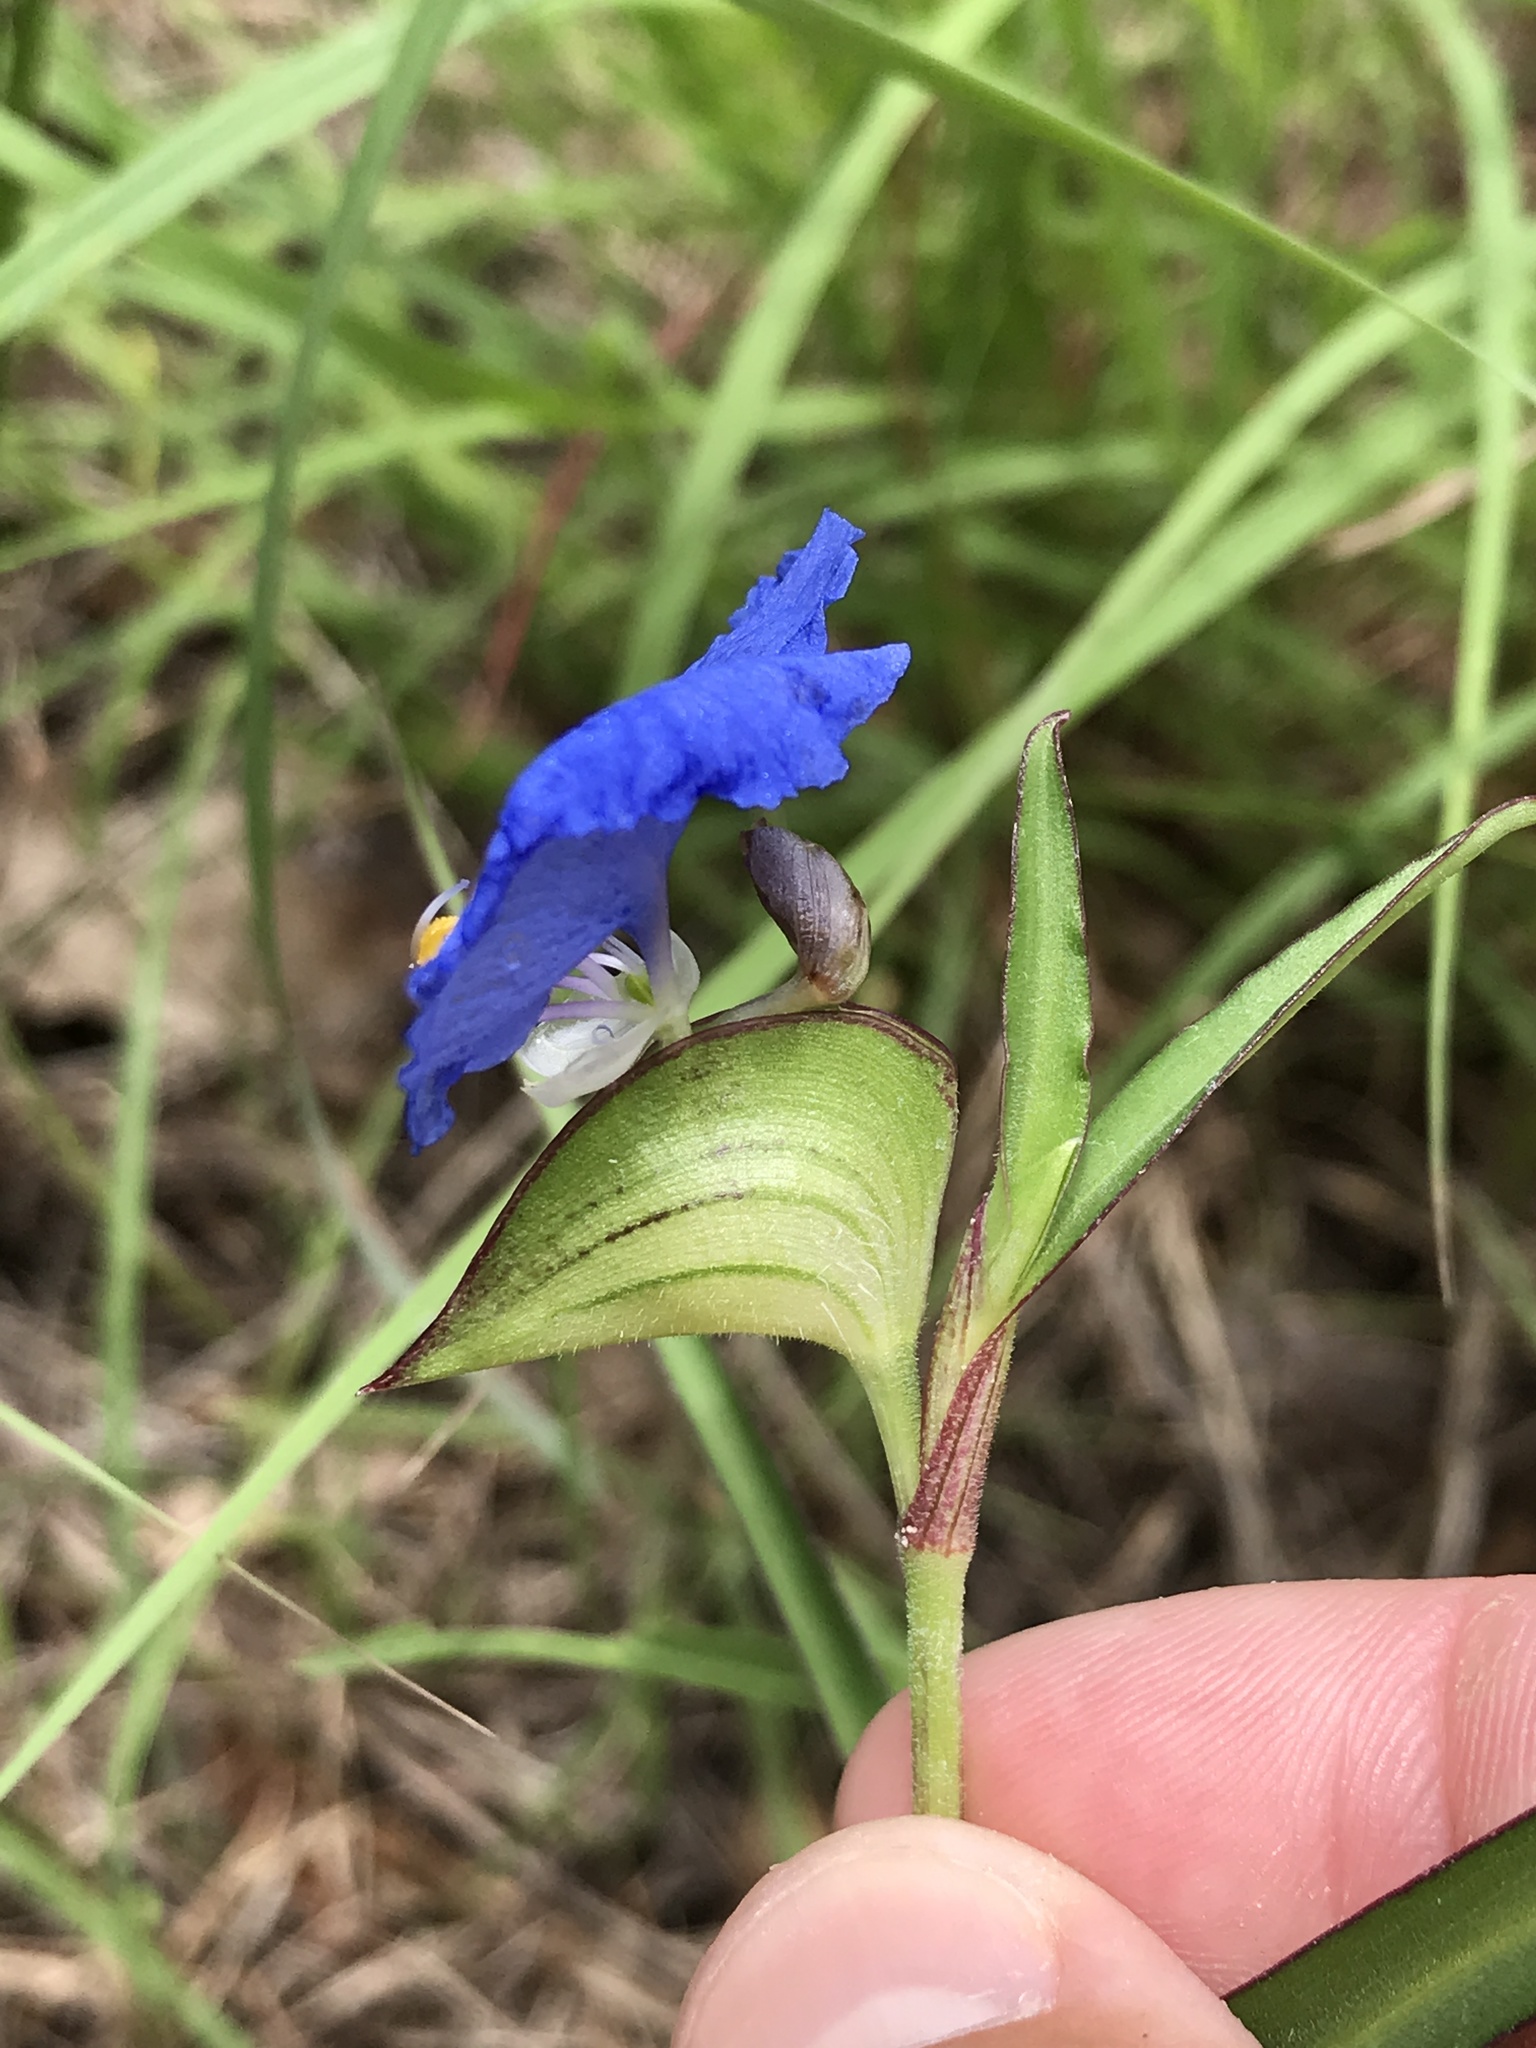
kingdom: Plantae
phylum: Tracheophyta
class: Liliopsida
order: Commelinales
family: Commelinaceae
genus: Commelina
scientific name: Commelina erecta
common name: Blousel blommetjie
